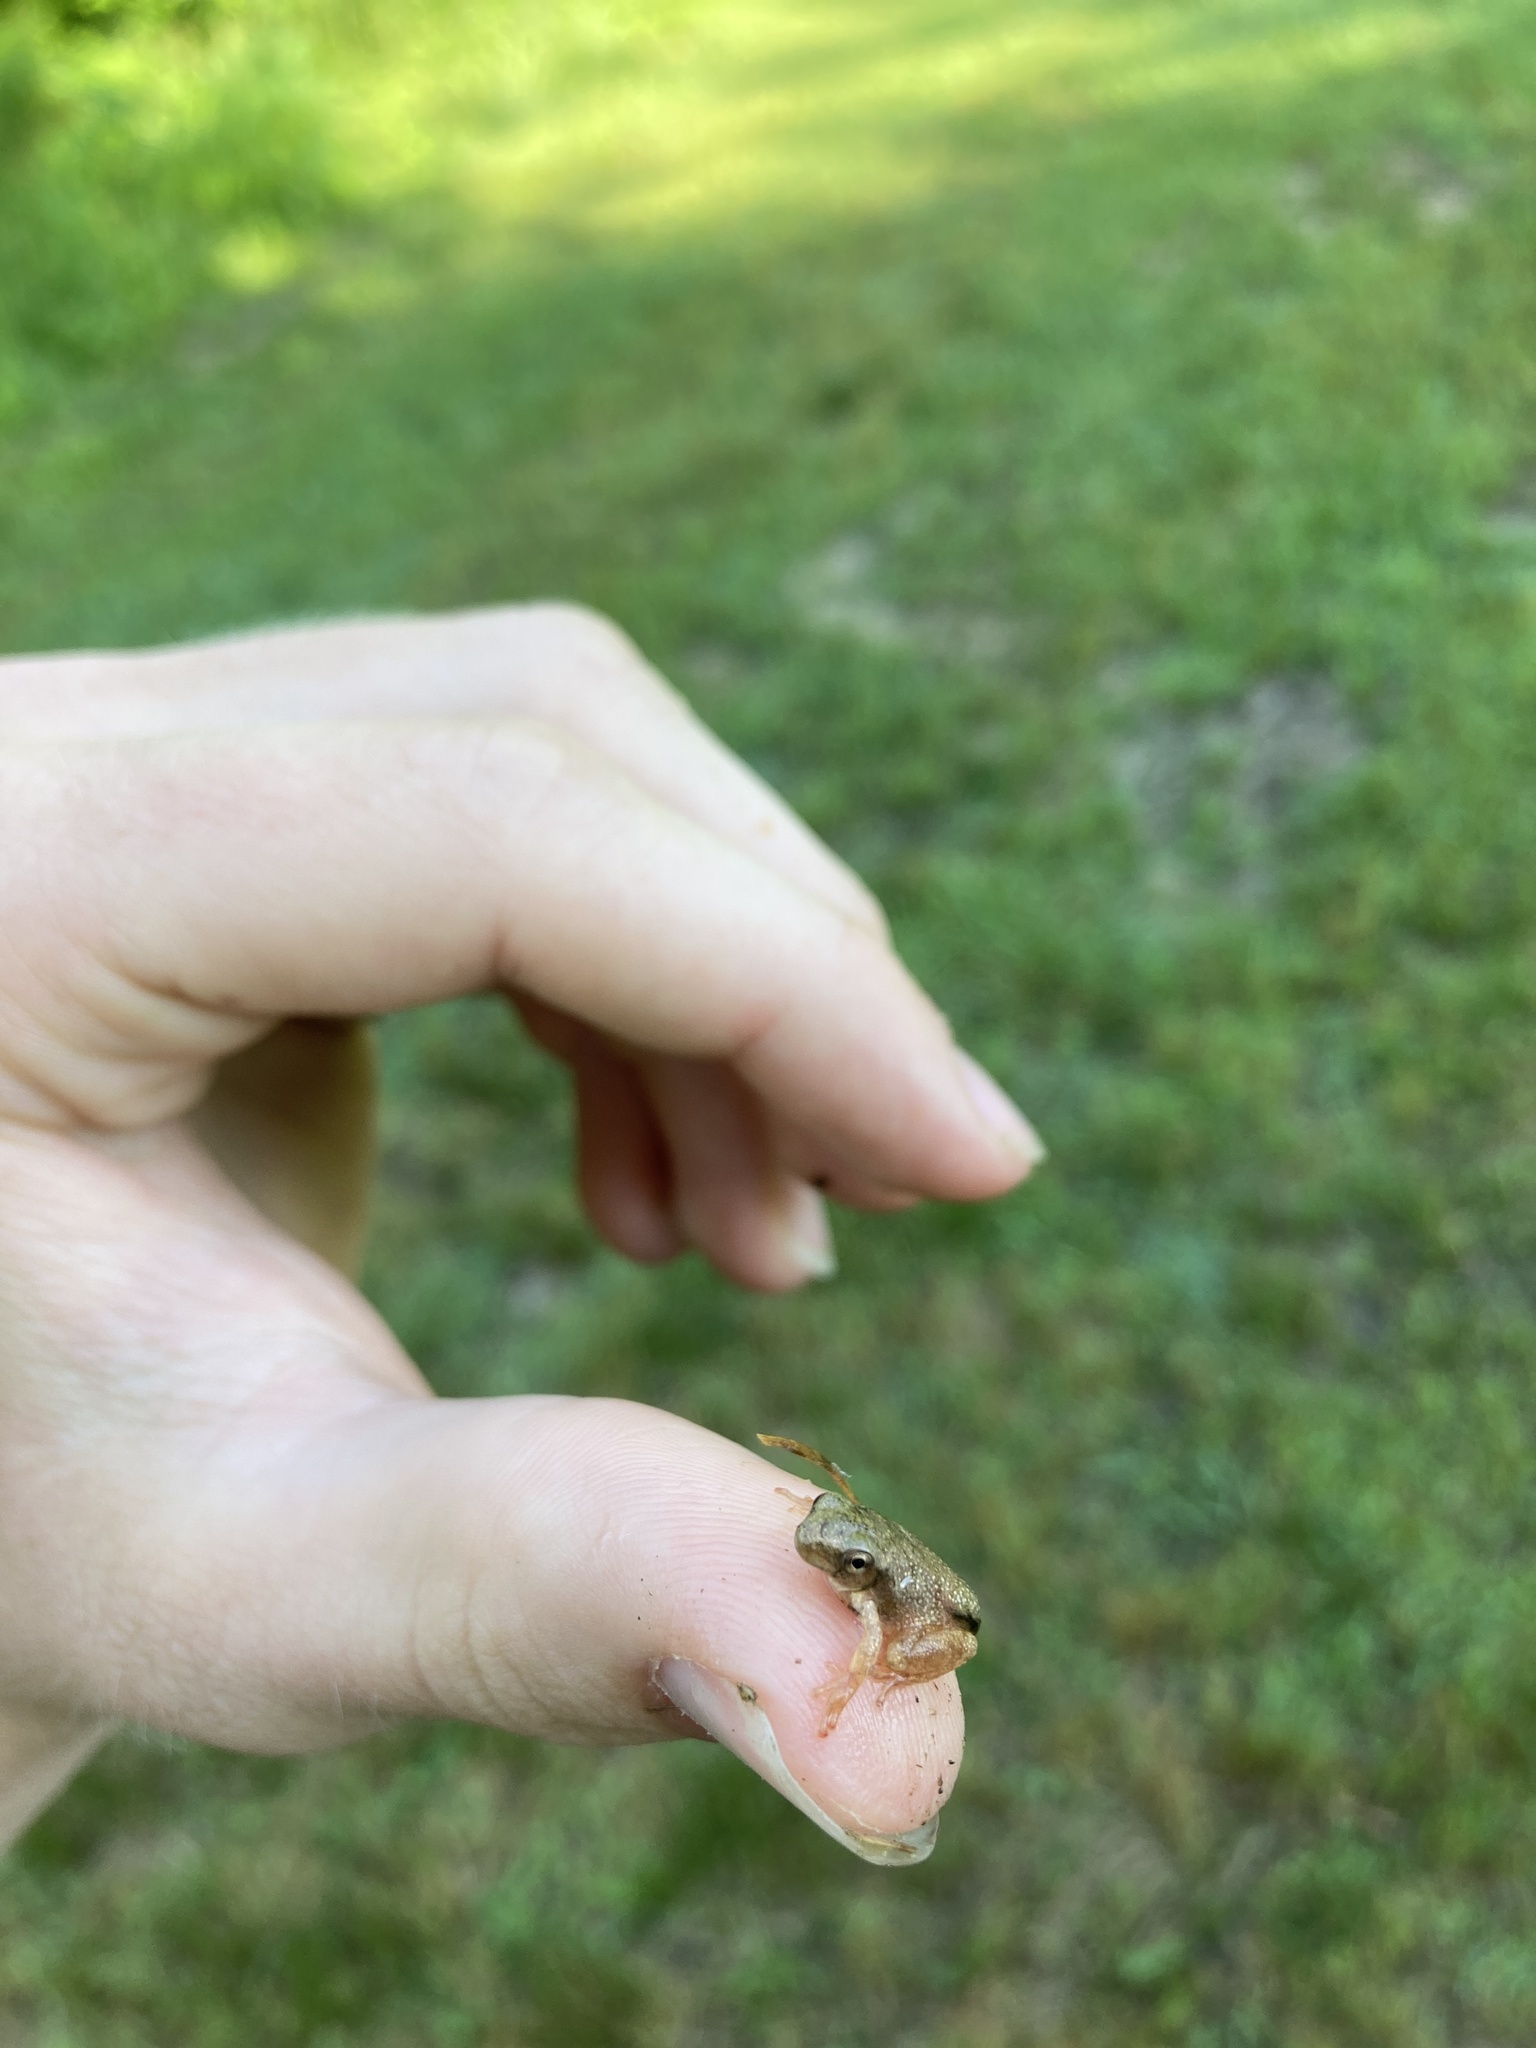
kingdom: Animalia
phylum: Chordata
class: Amphibia
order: Anura
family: Hylidae
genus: Pseudacris
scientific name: Pseudacris crucifer
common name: Spring peeper
